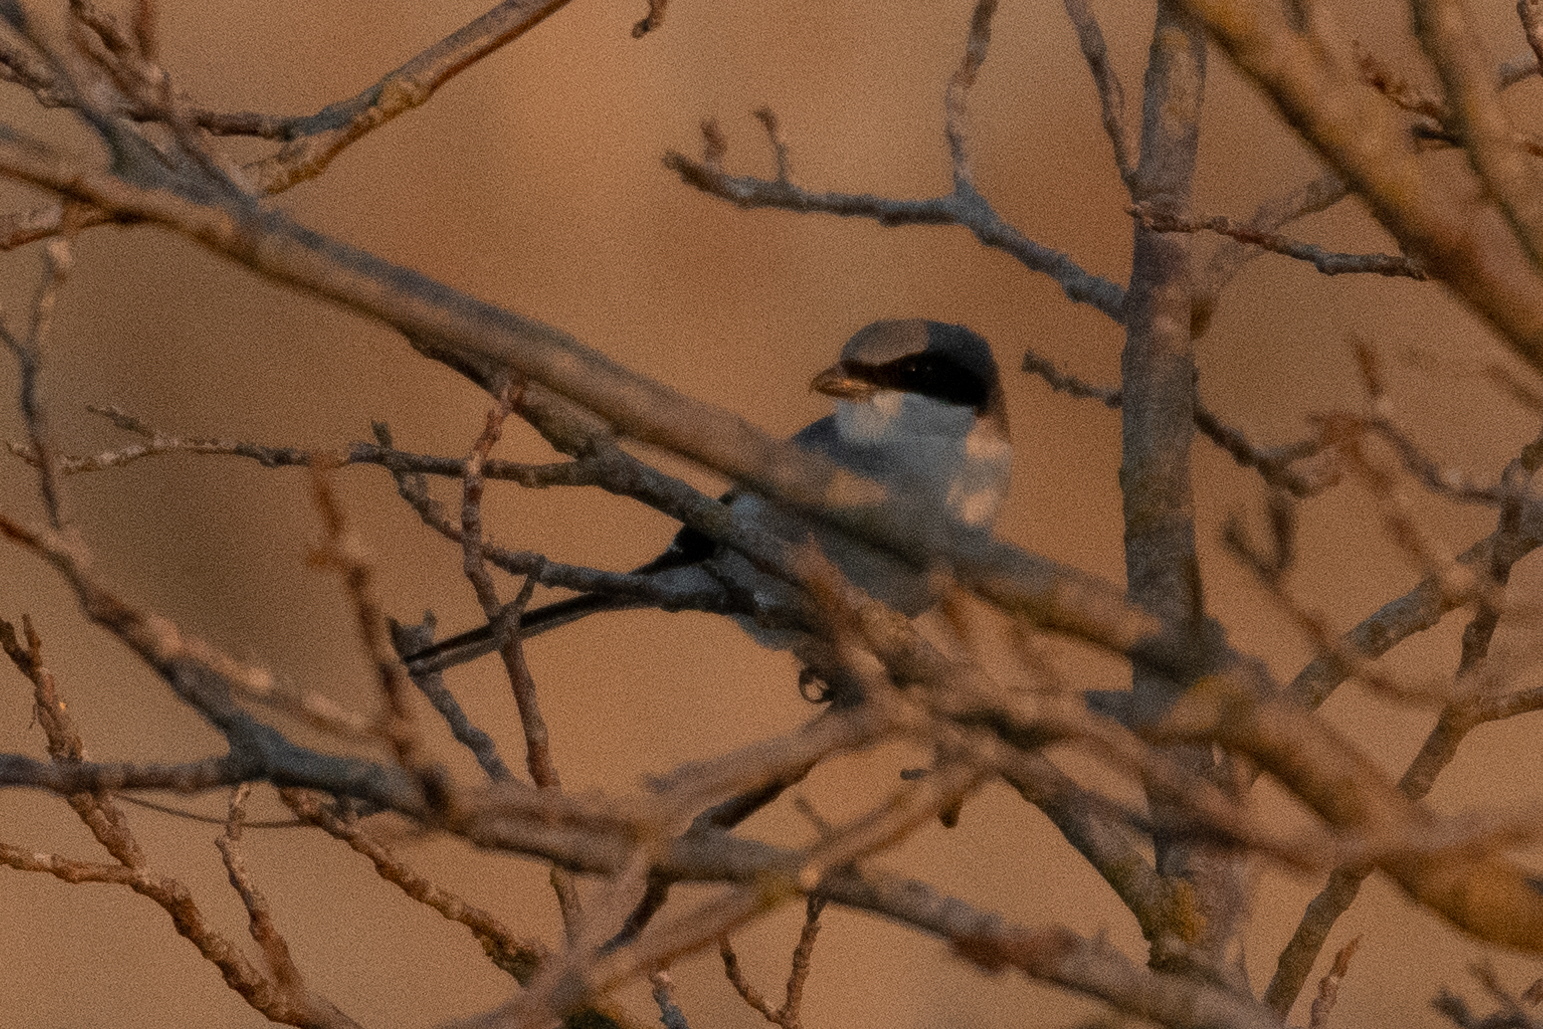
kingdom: Animalia
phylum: Chordata
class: Aves
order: Passeriformes
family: Laniidae
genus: Lanius
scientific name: Lanius ludovicianus
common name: Loggerhead shrike
